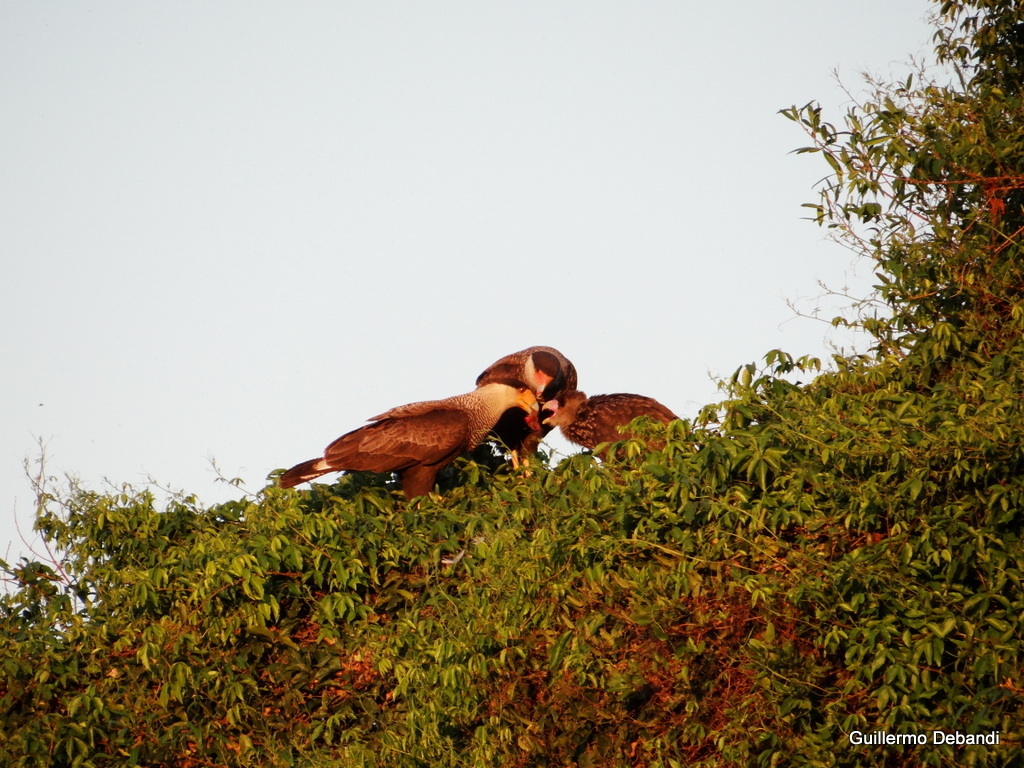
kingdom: Animalia
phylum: Chordata
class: Aves
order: Falconiformes
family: Falconidae
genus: Caracara
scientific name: Caracara plancus
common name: Southern caracara
